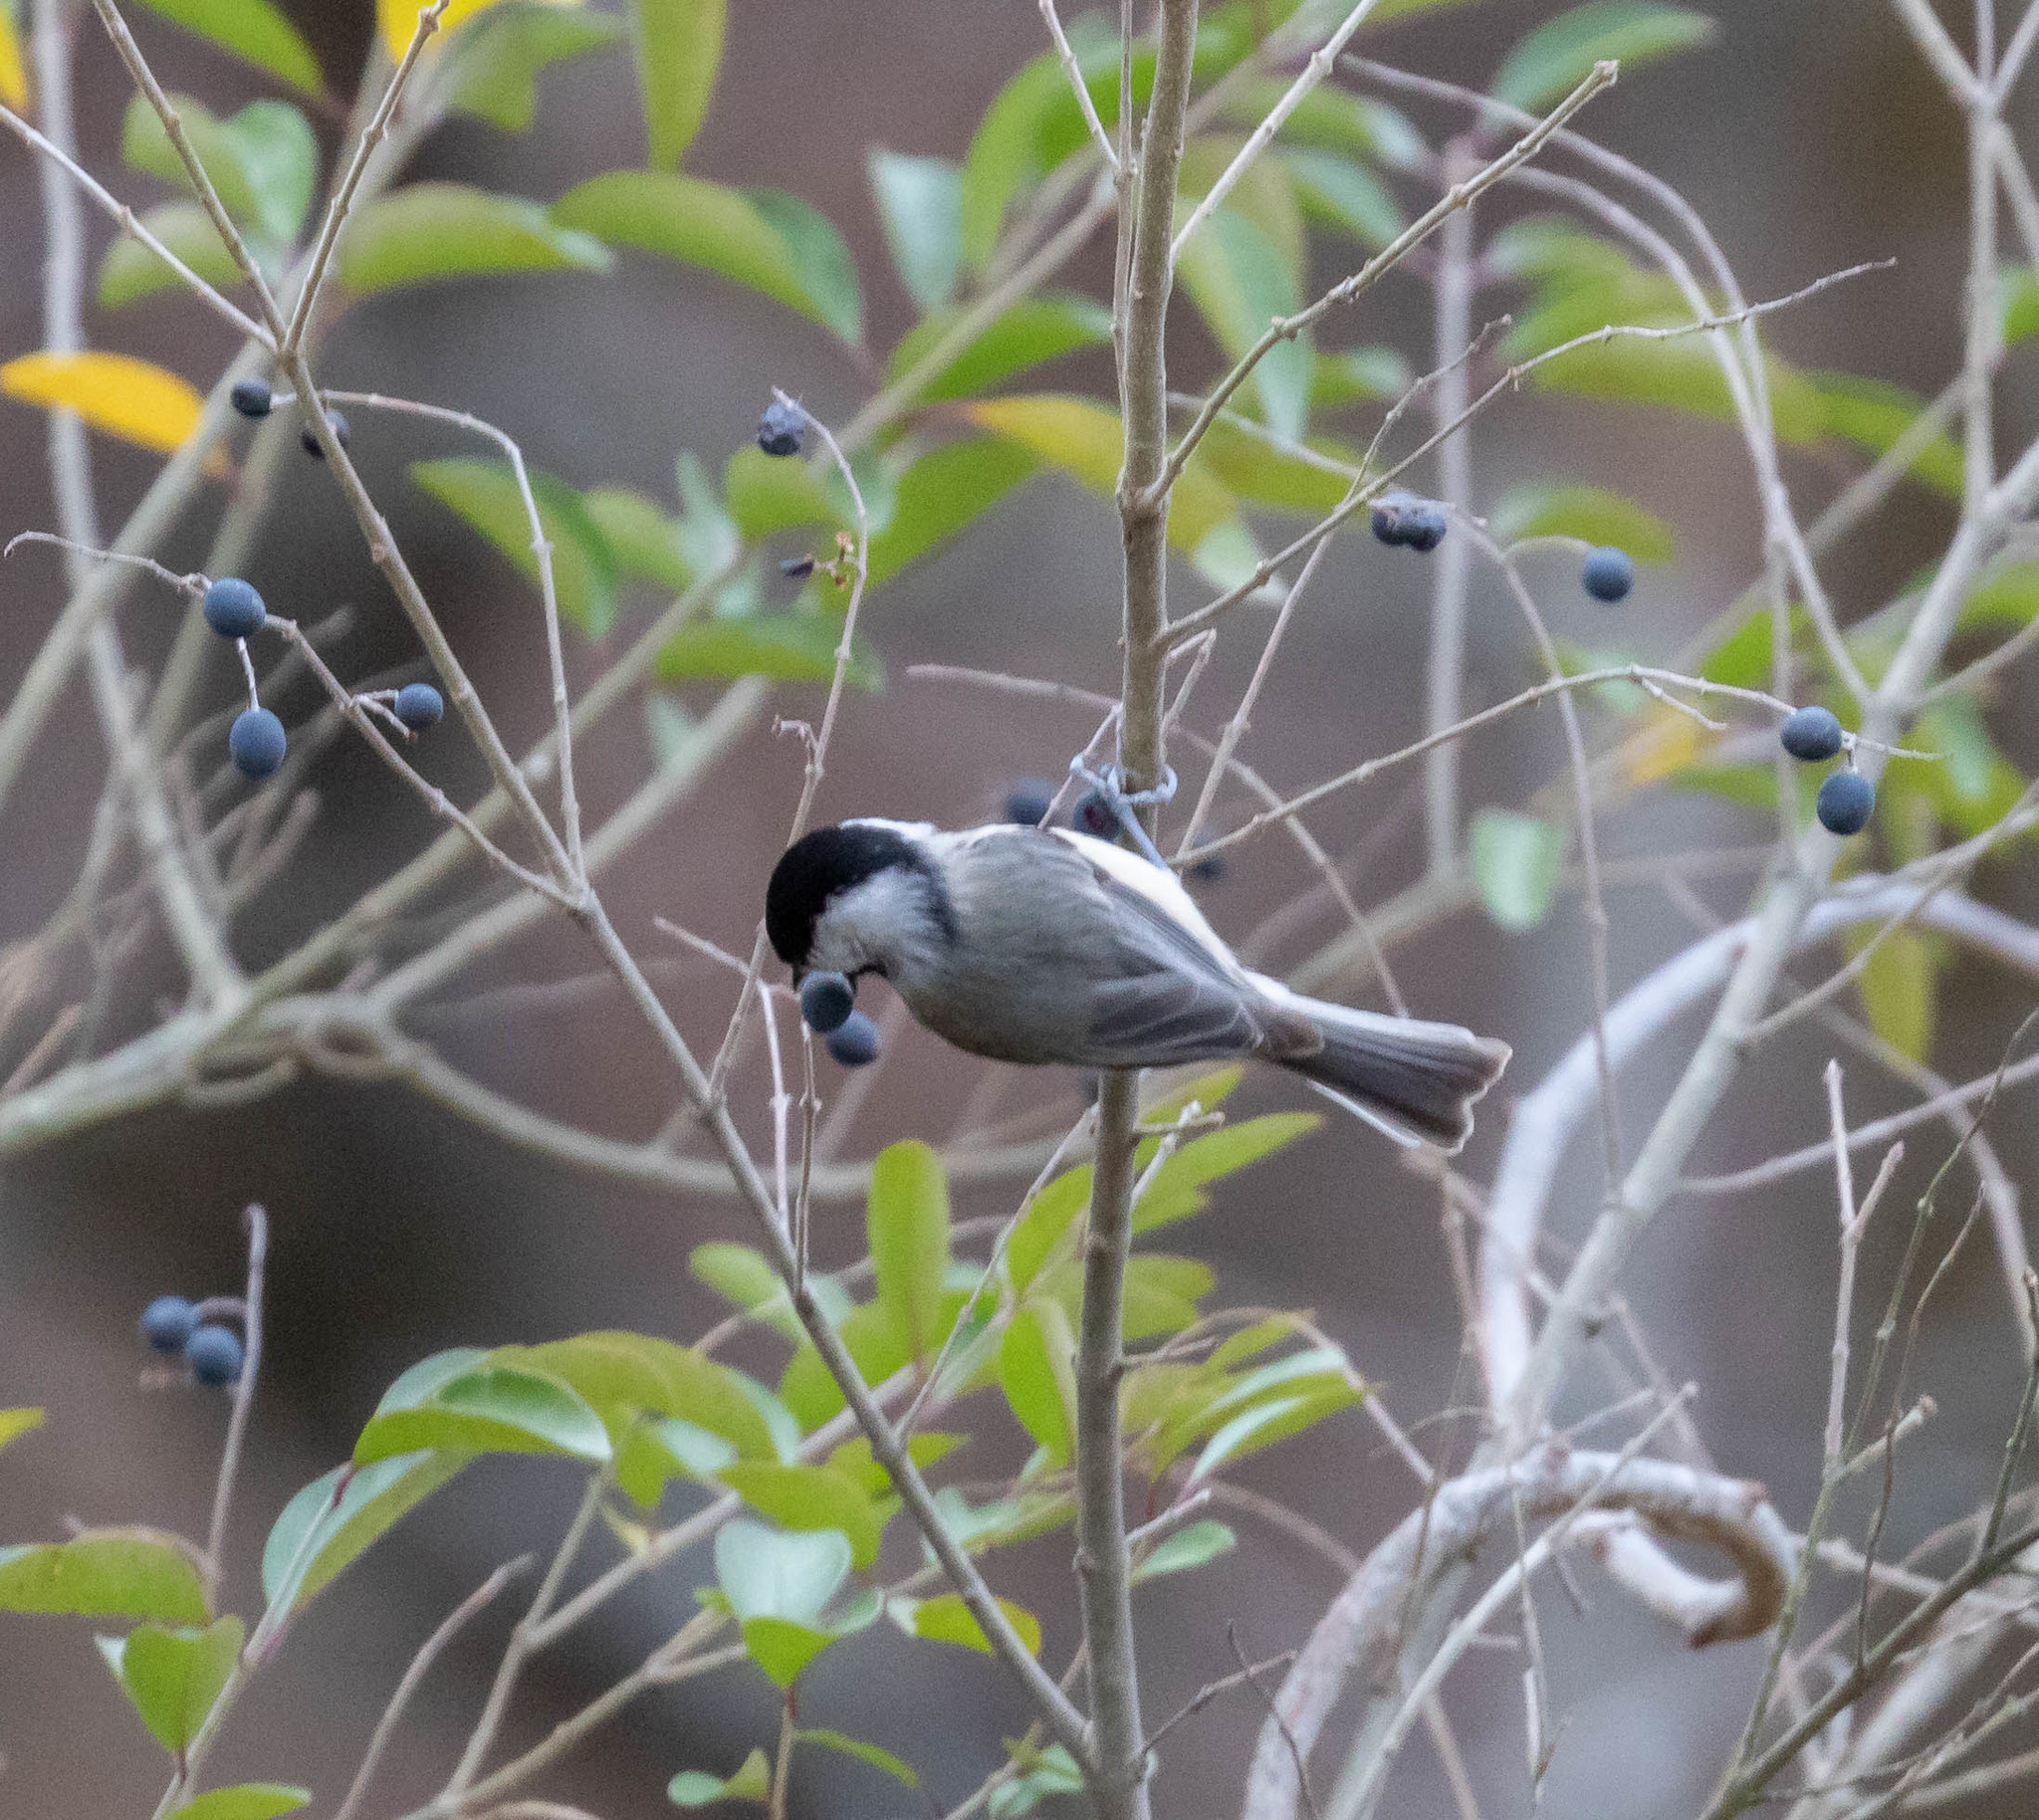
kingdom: Animalia
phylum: Chordata
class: Aves
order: Passeriformes
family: Paridae
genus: Poecile
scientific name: Poecile carolinensis
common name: Carolina chickadee
